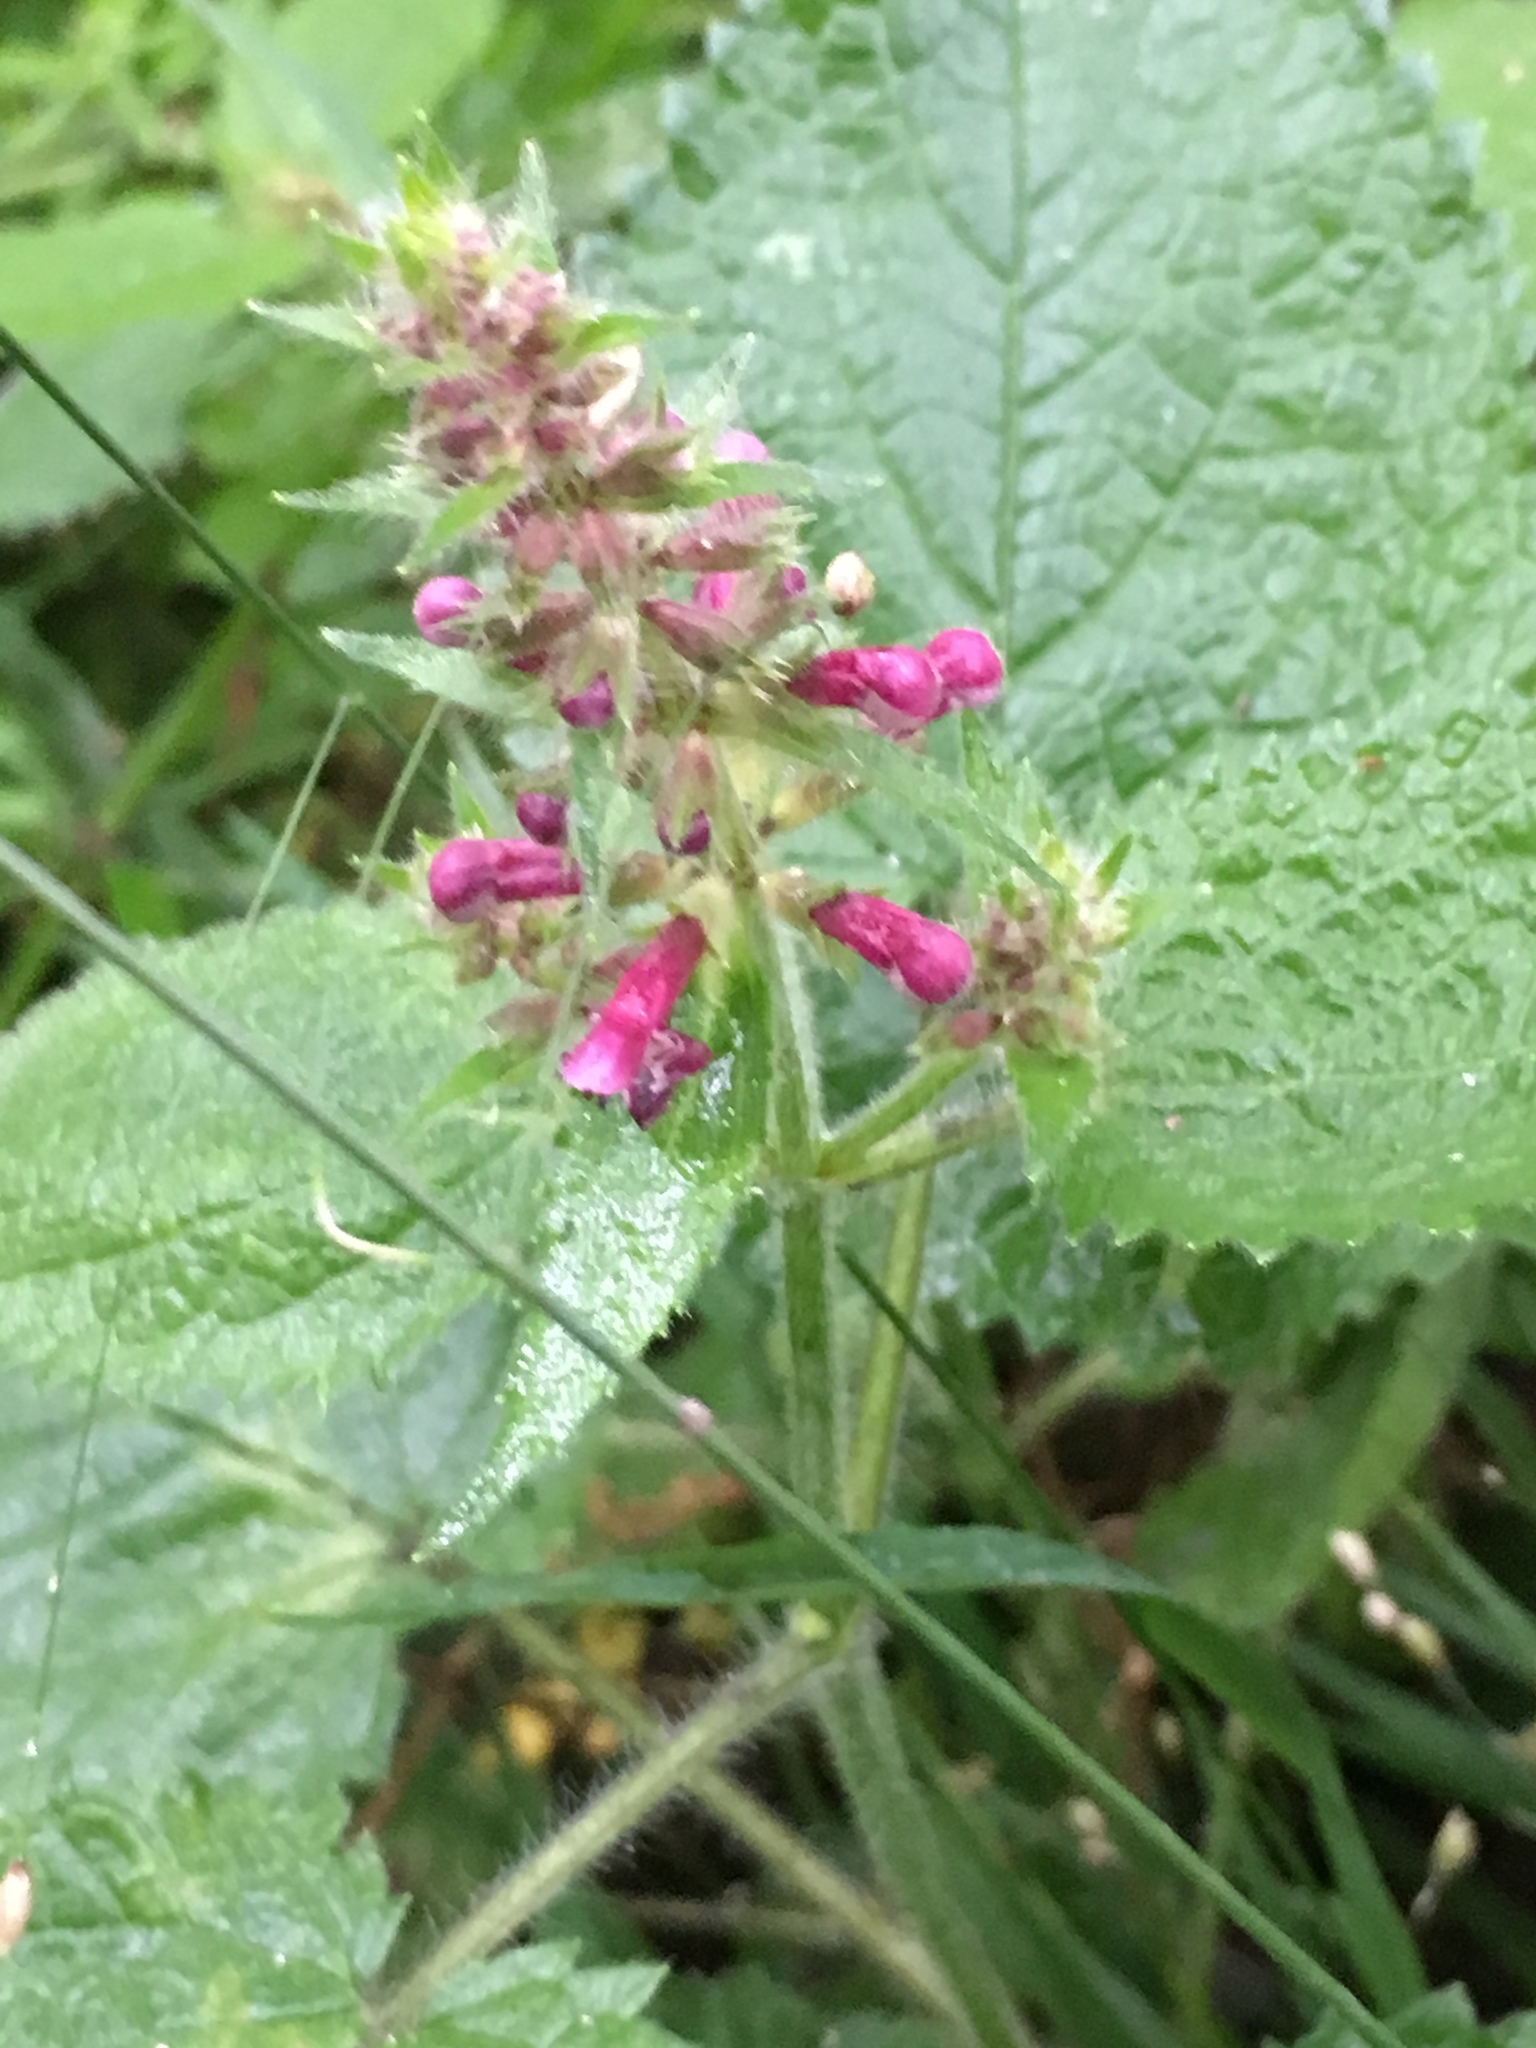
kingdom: Plantae
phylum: Tracheophyta
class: Magnoliopsida
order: Lamiales
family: Lamiaceae
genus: Stachys
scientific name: Stachys sylvatica
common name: Hedge woundwort
